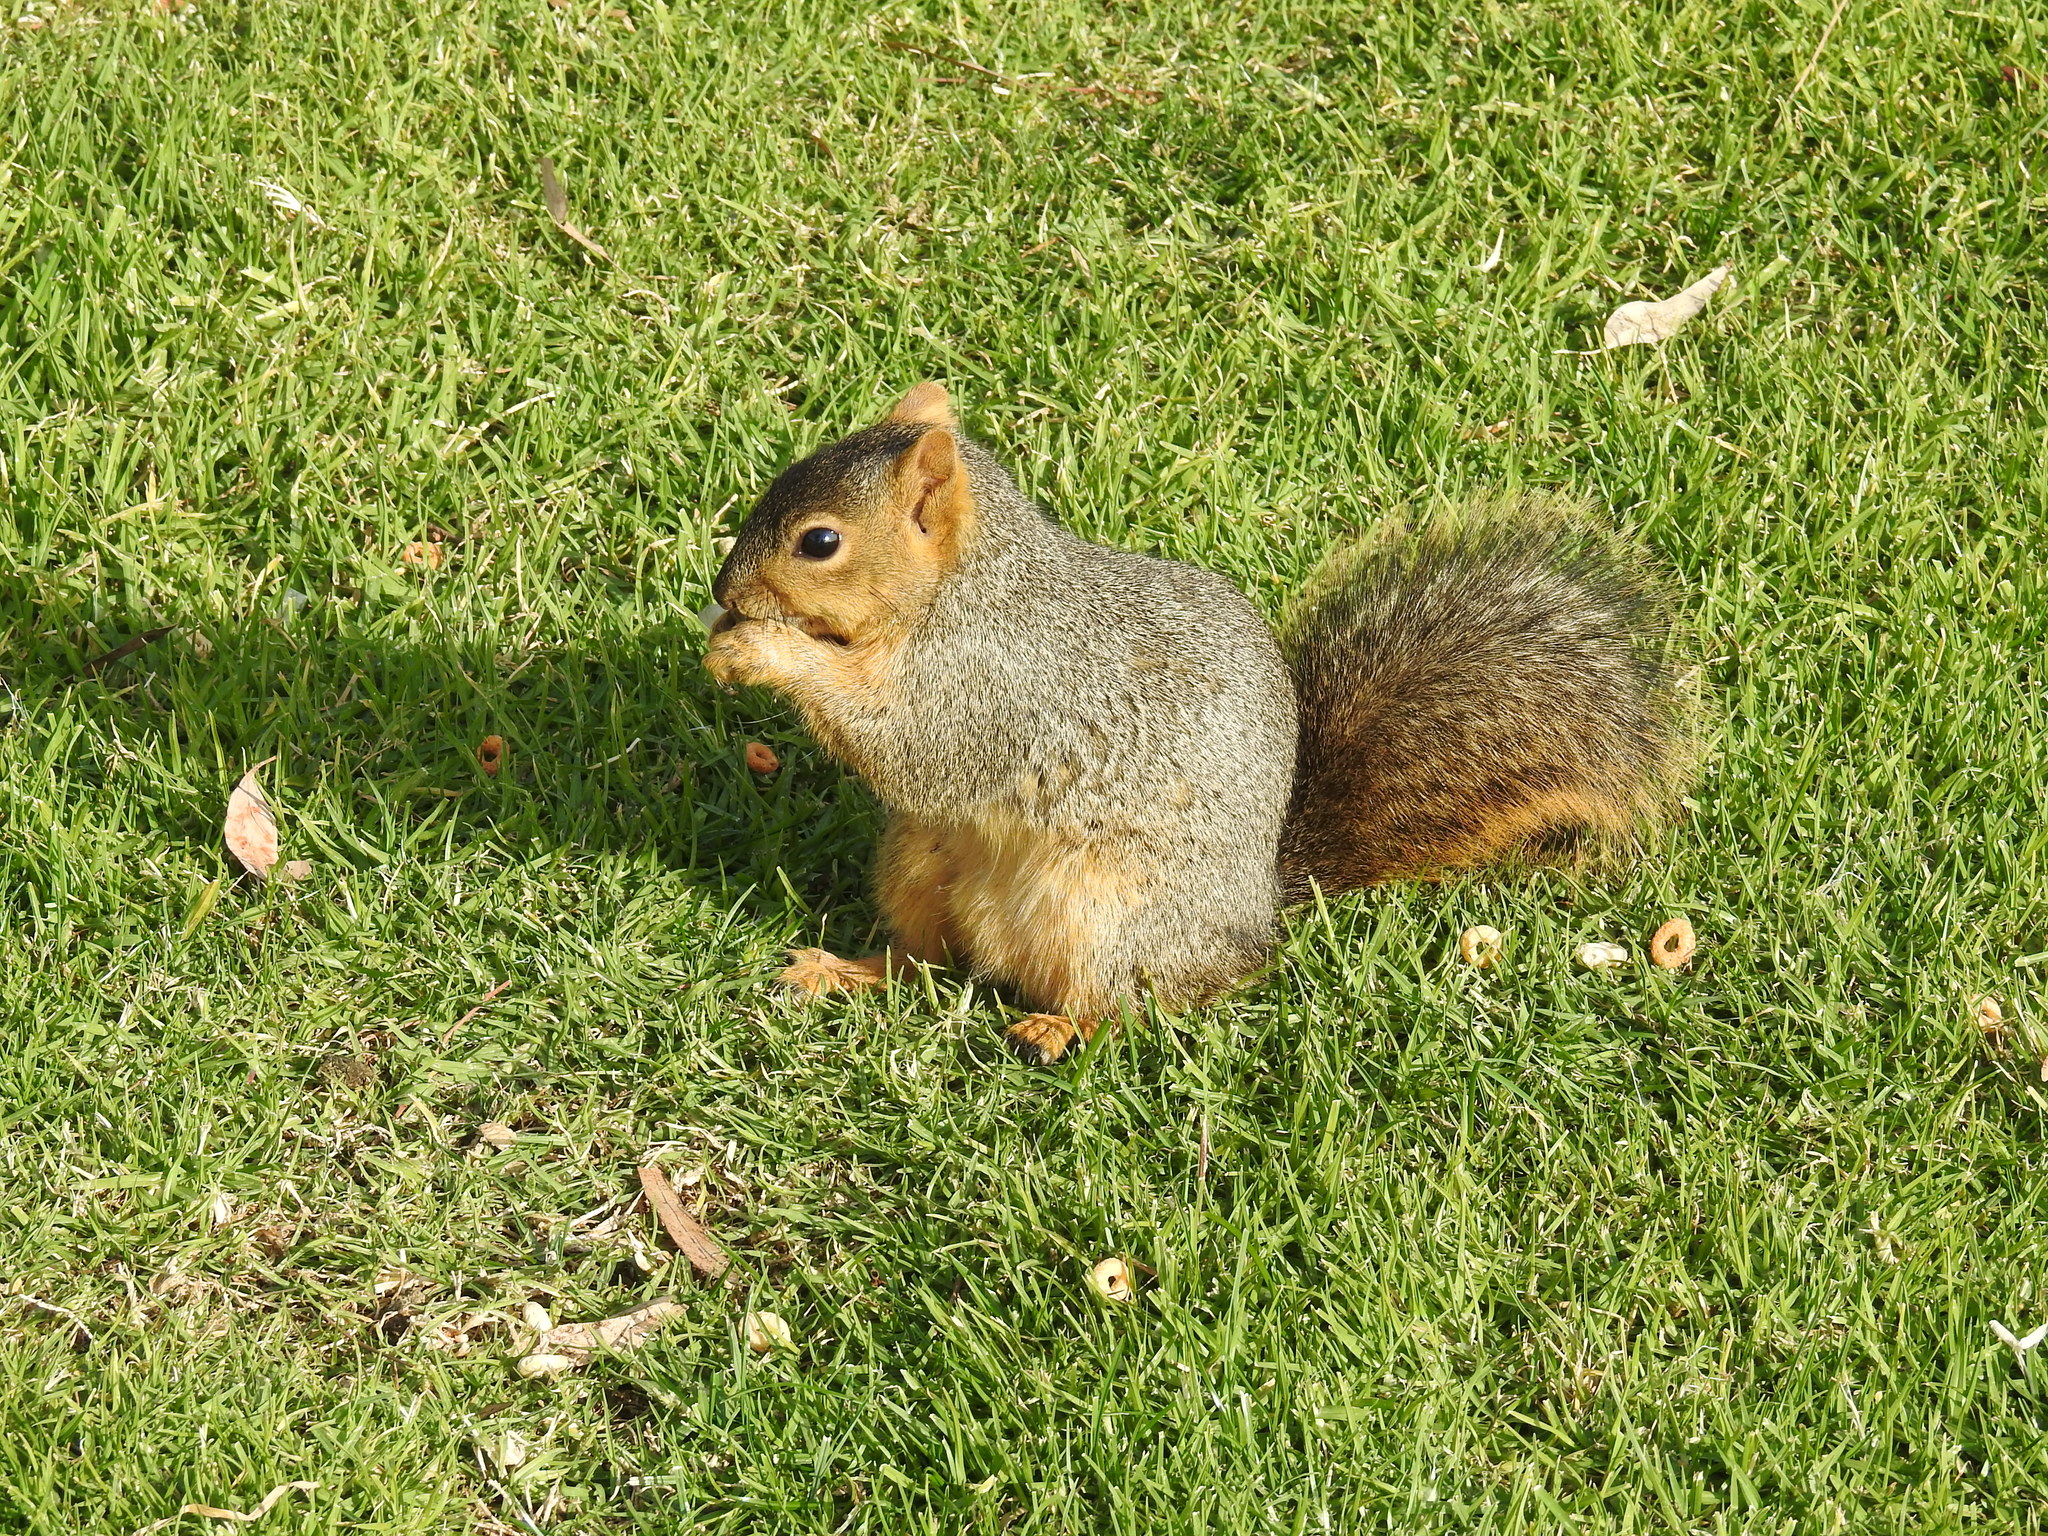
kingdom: Animalia
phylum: Chordata
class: Mammalia
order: Rodentia
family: Sciuridae
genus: Sciurus
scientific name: Sciurus niger
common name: Fox squirrel
